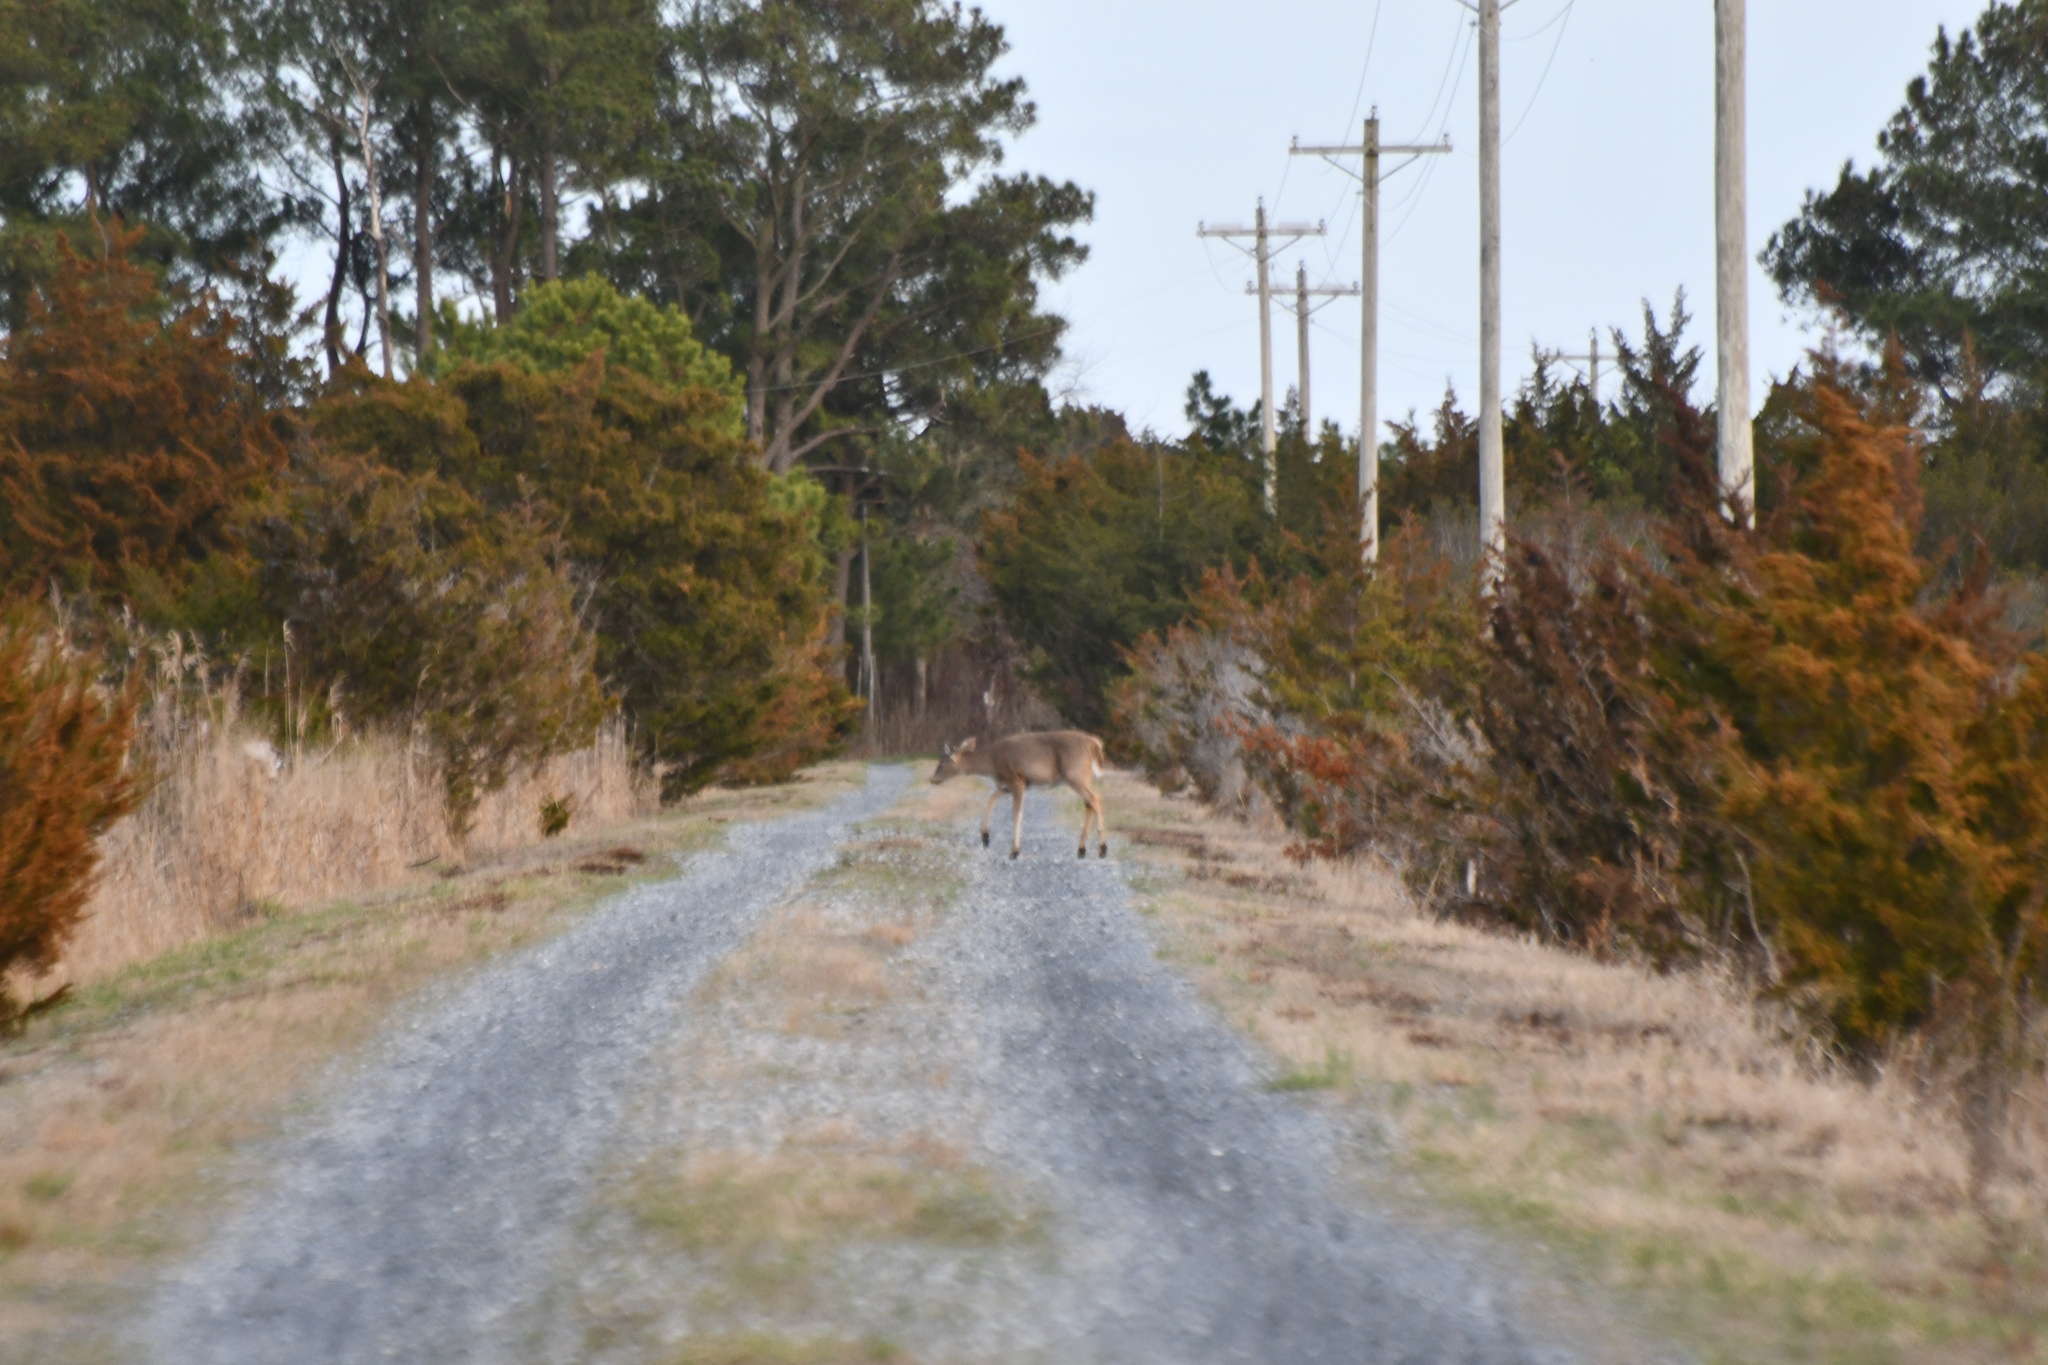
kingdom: Animalia
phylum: Chordata
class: Mammalia
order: Artiodactyla
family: Cervidae
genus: Odocoileus
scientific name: Odocoileus virginianus
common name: White-tailed deer
